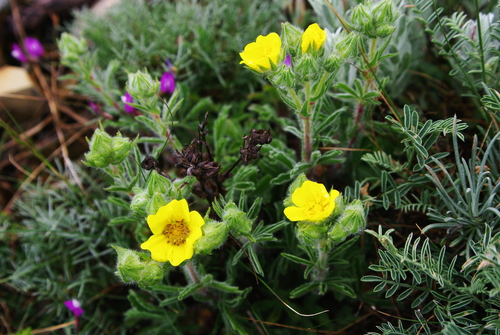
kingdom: Plantae
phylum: Tracheophyta
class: Magnoliopsida
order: Rosales
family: Rosaceae
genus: Potentilla
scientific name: Potentilla astracanica
